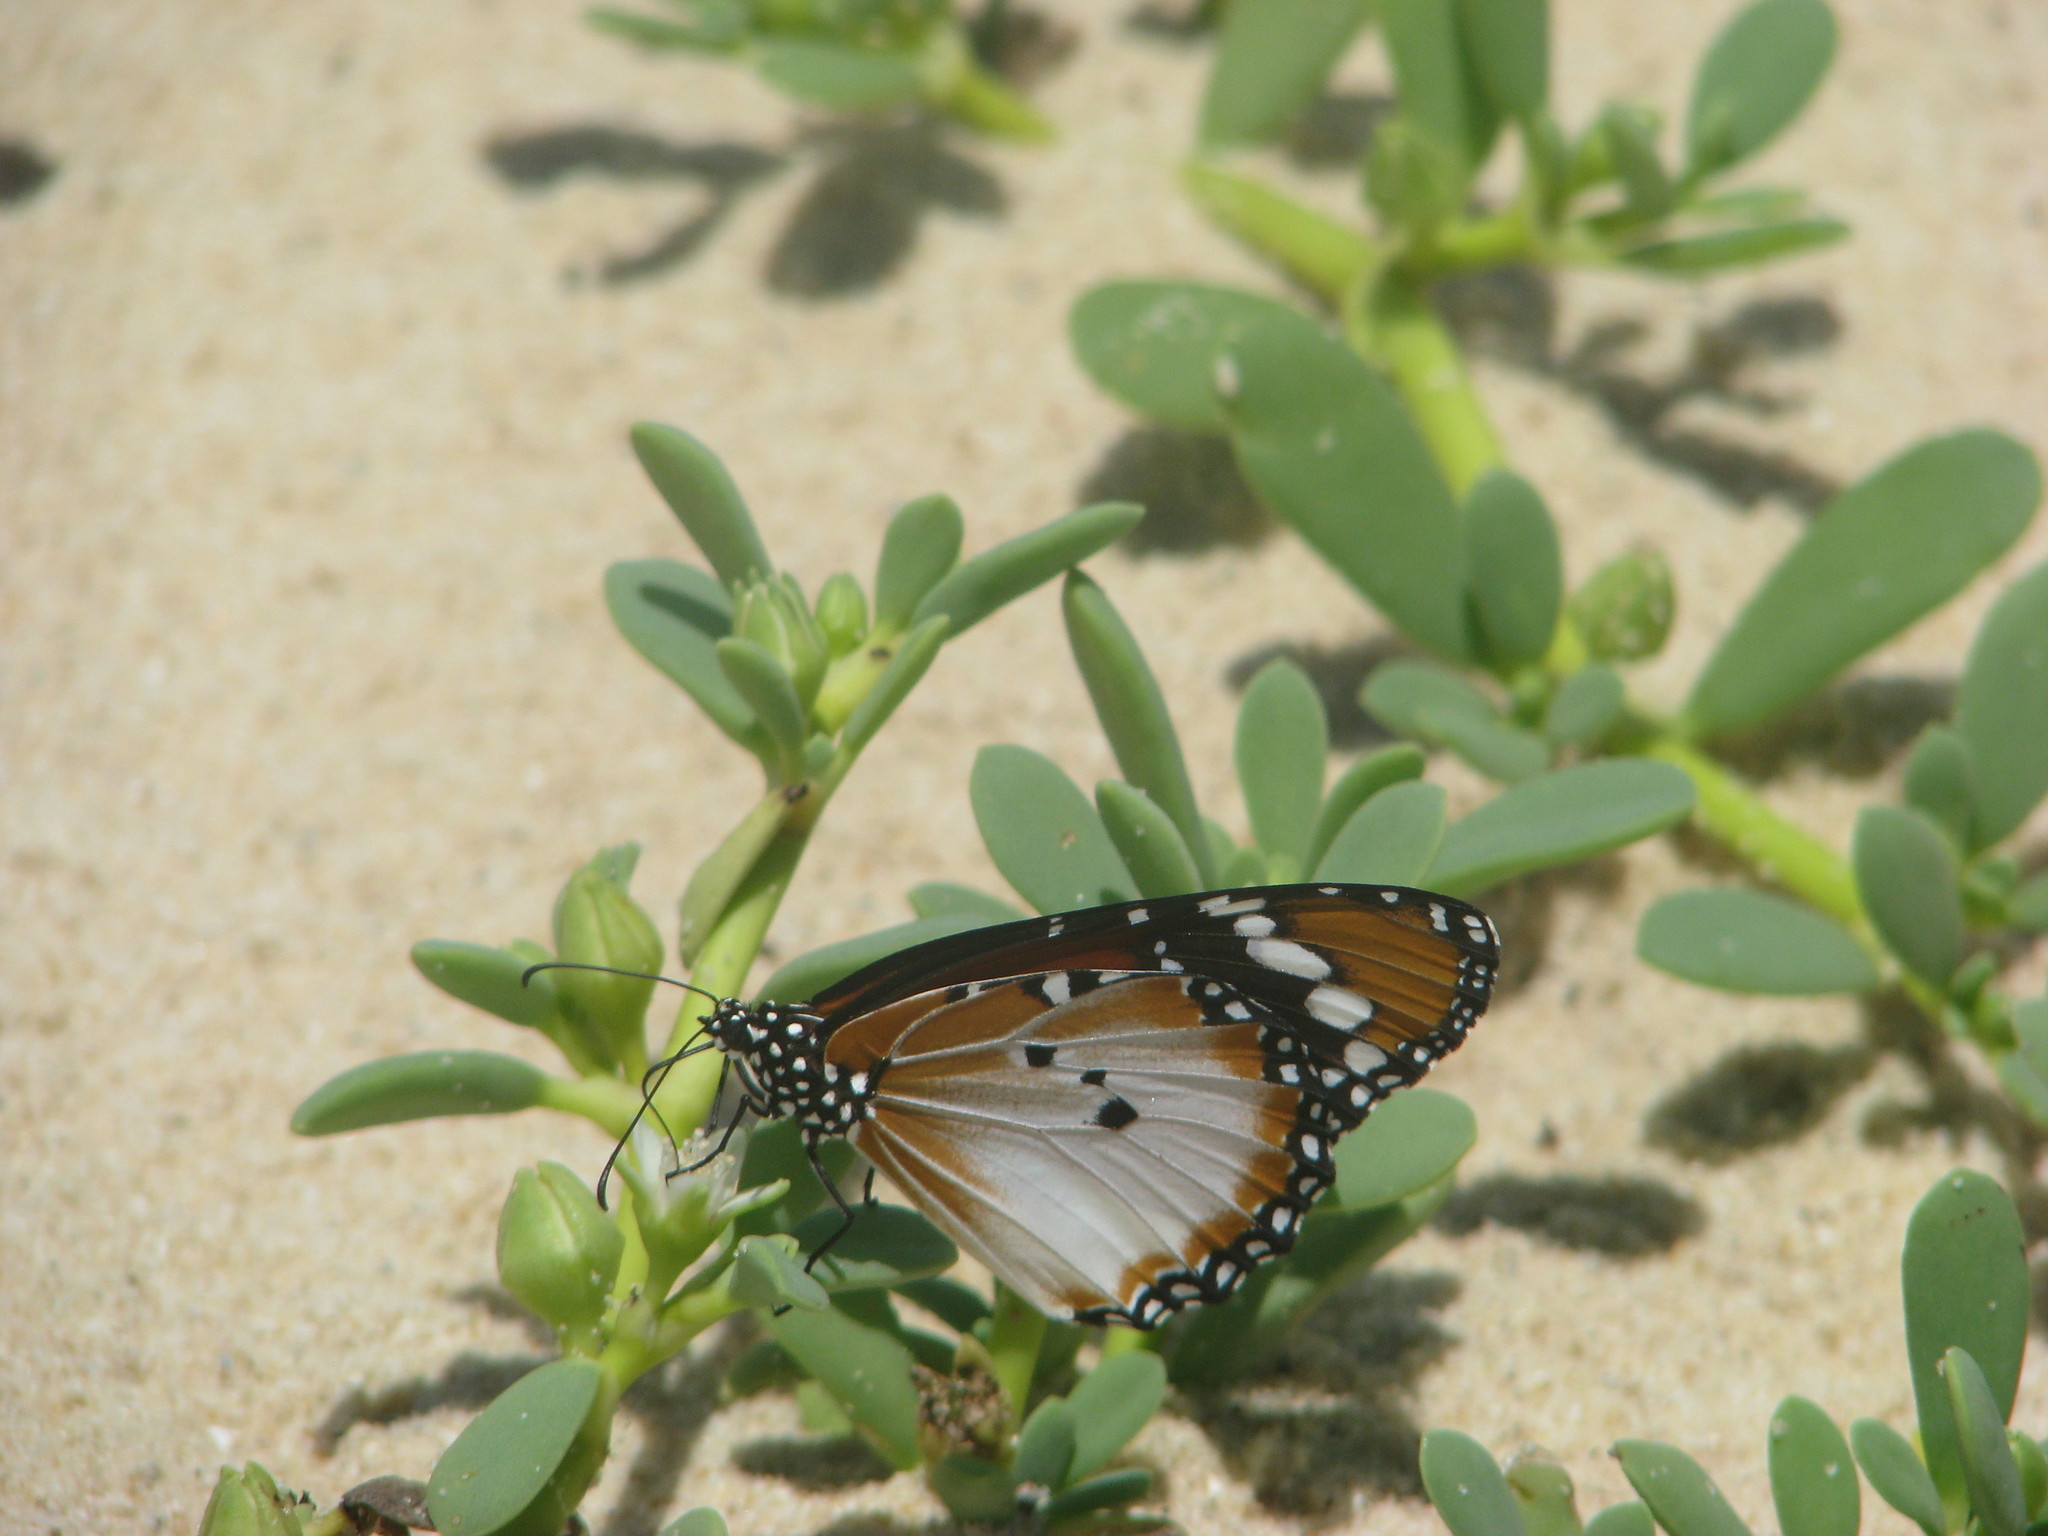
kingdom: Animalia
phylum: Arthropoda
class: Insecta
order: Lepidoptera
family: Nymphalidae
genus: Danaus
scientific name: Danaus chrysippus
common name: Plain tiger
